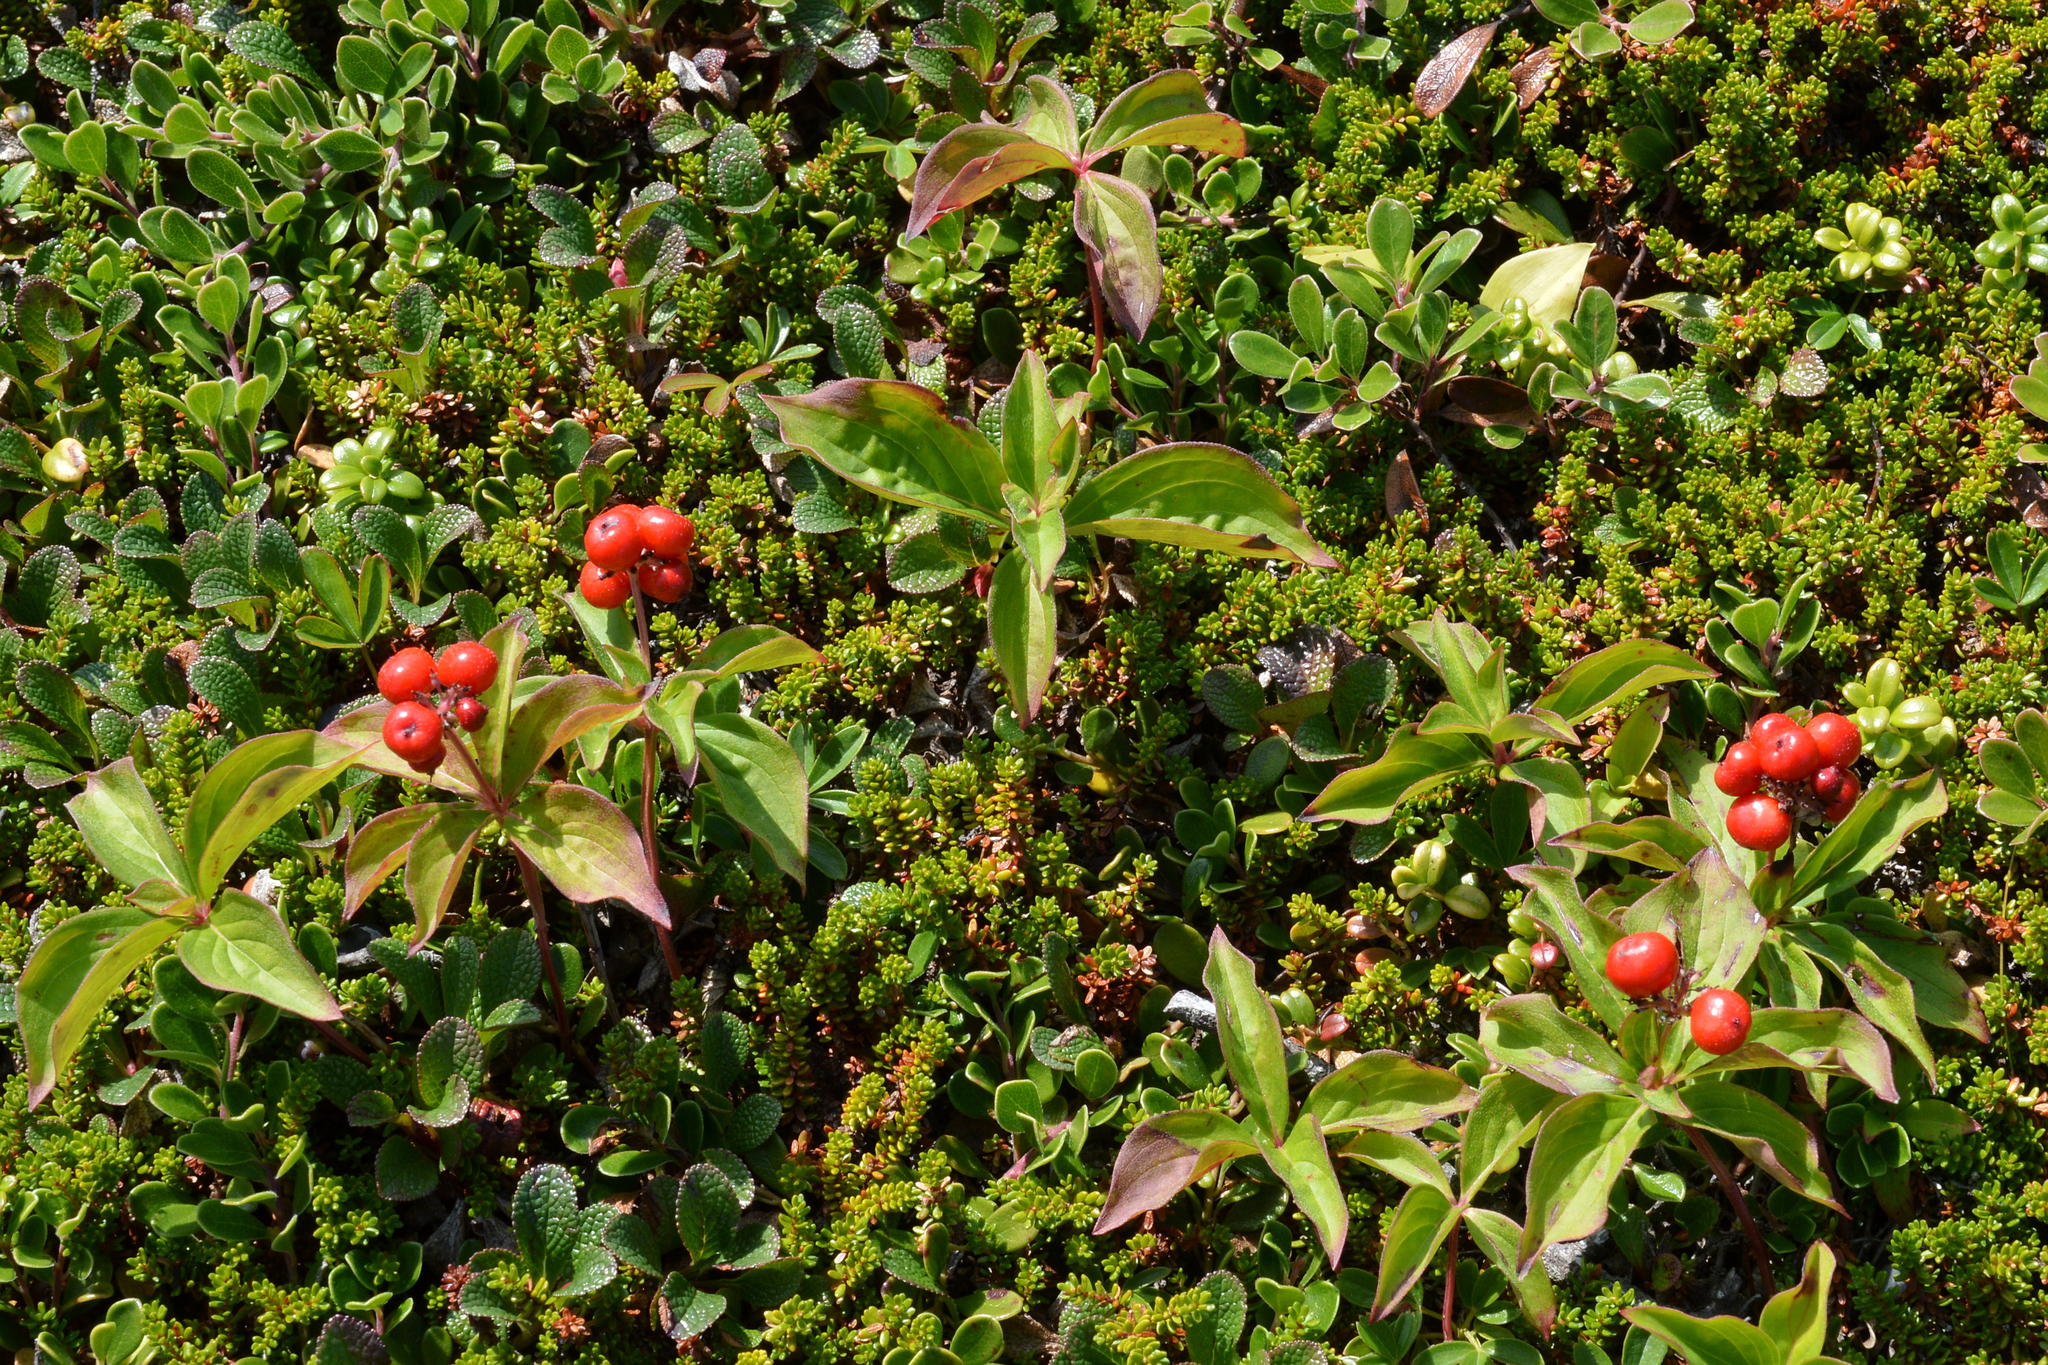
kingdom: Plantae
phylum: Tracheophyta
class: Magnoliopsida
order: Cornales
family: Cornaceae
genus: Cornus
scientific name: Cornus suecica
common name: Dwarf cornel
